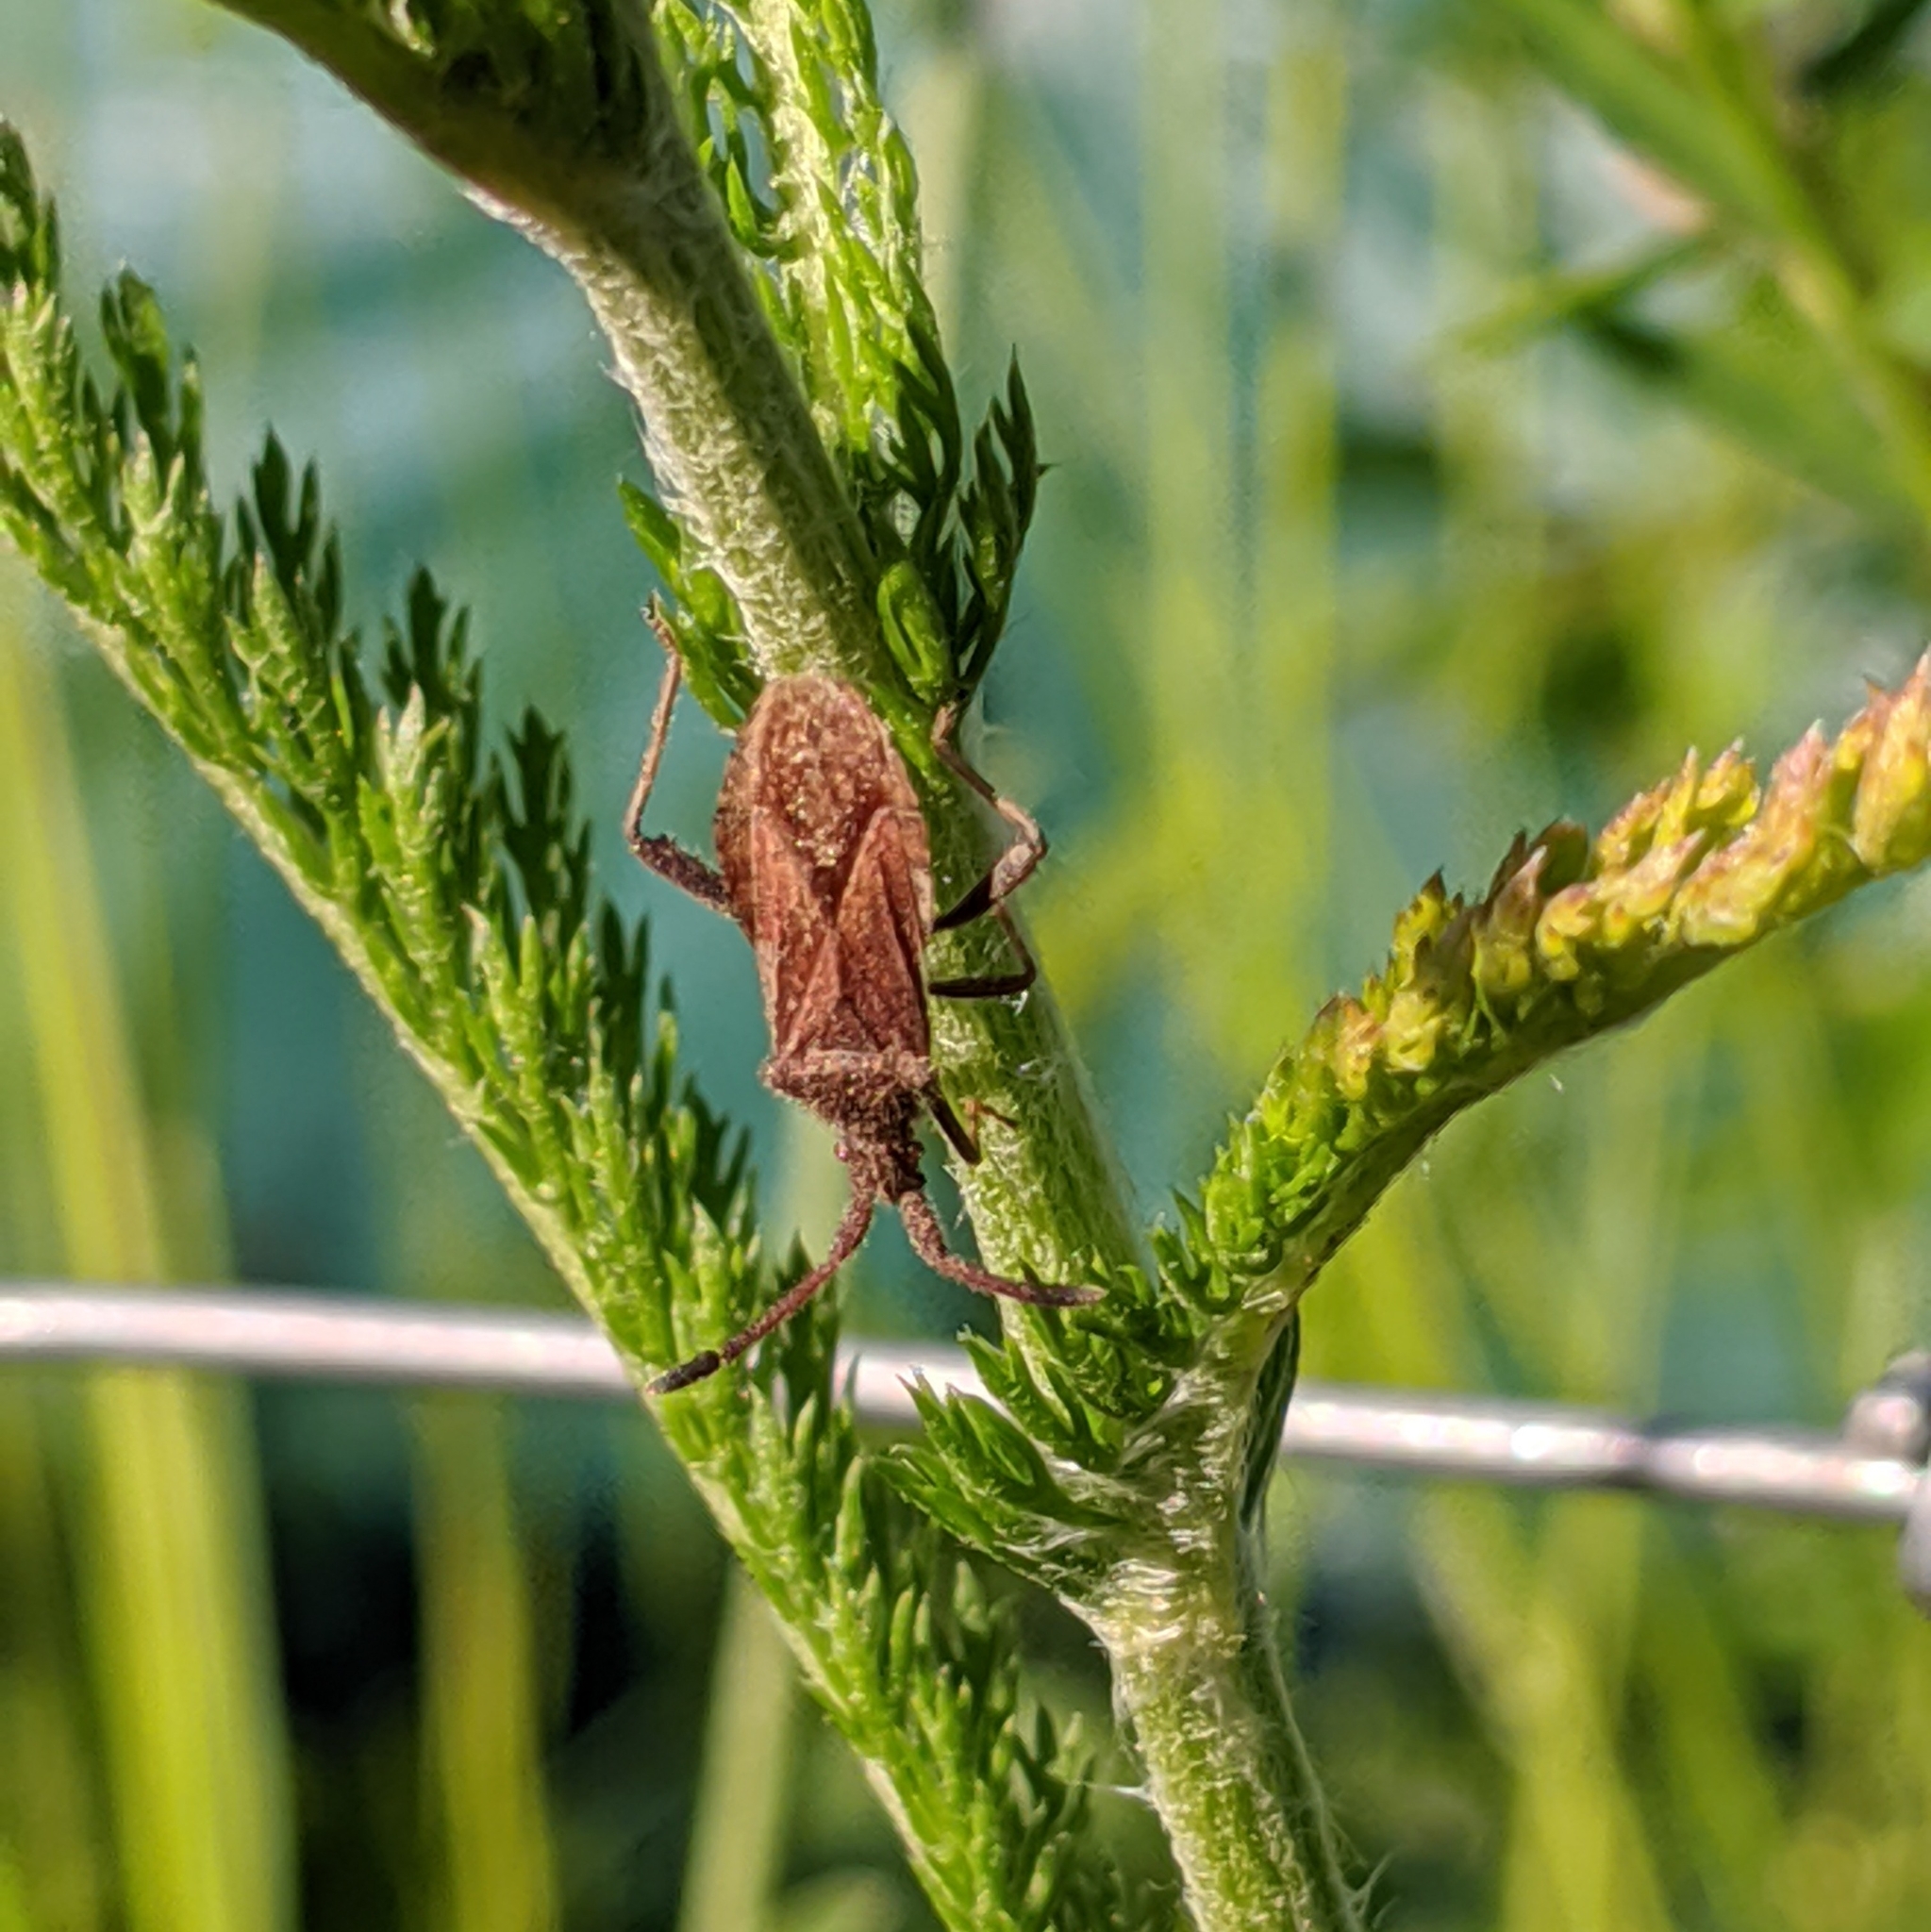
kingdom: Animalia
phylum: Arthropoda
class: Insecta
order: Hemiptera
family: Coreidae
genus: Coriomeris
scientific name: Coriomeris denticulatus
